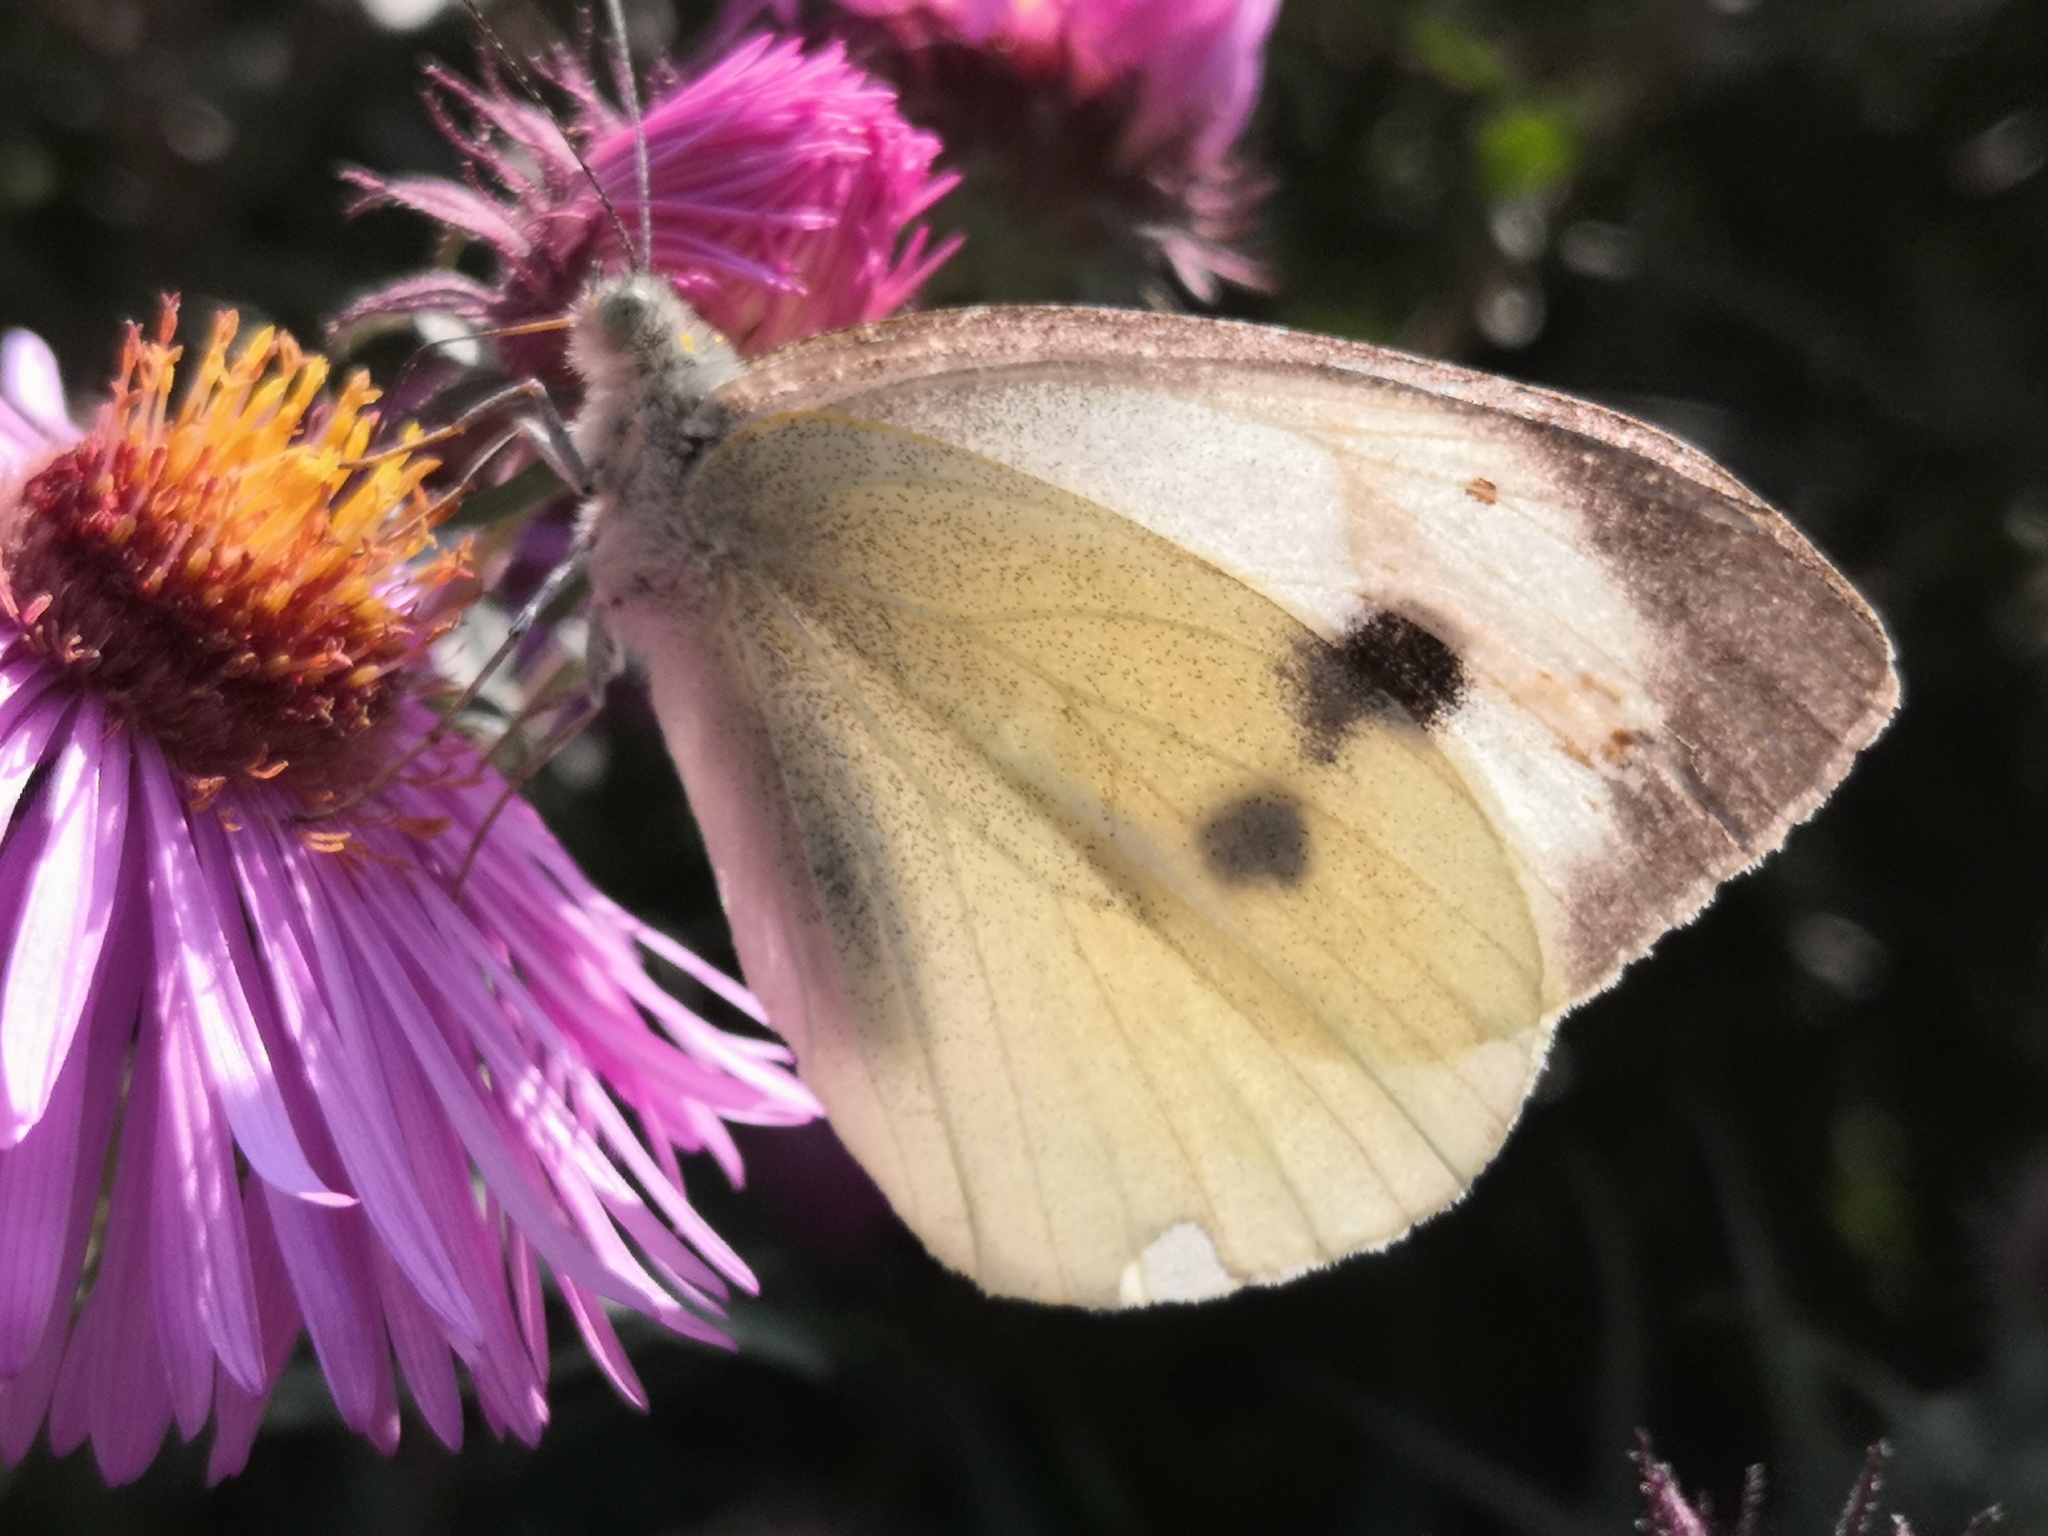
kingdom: Animalia
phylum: Arthropoda
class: Insecta
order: Lepidoptera
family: Pieridae
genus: Pieris
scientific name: Pieris brassicae
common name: Large white
